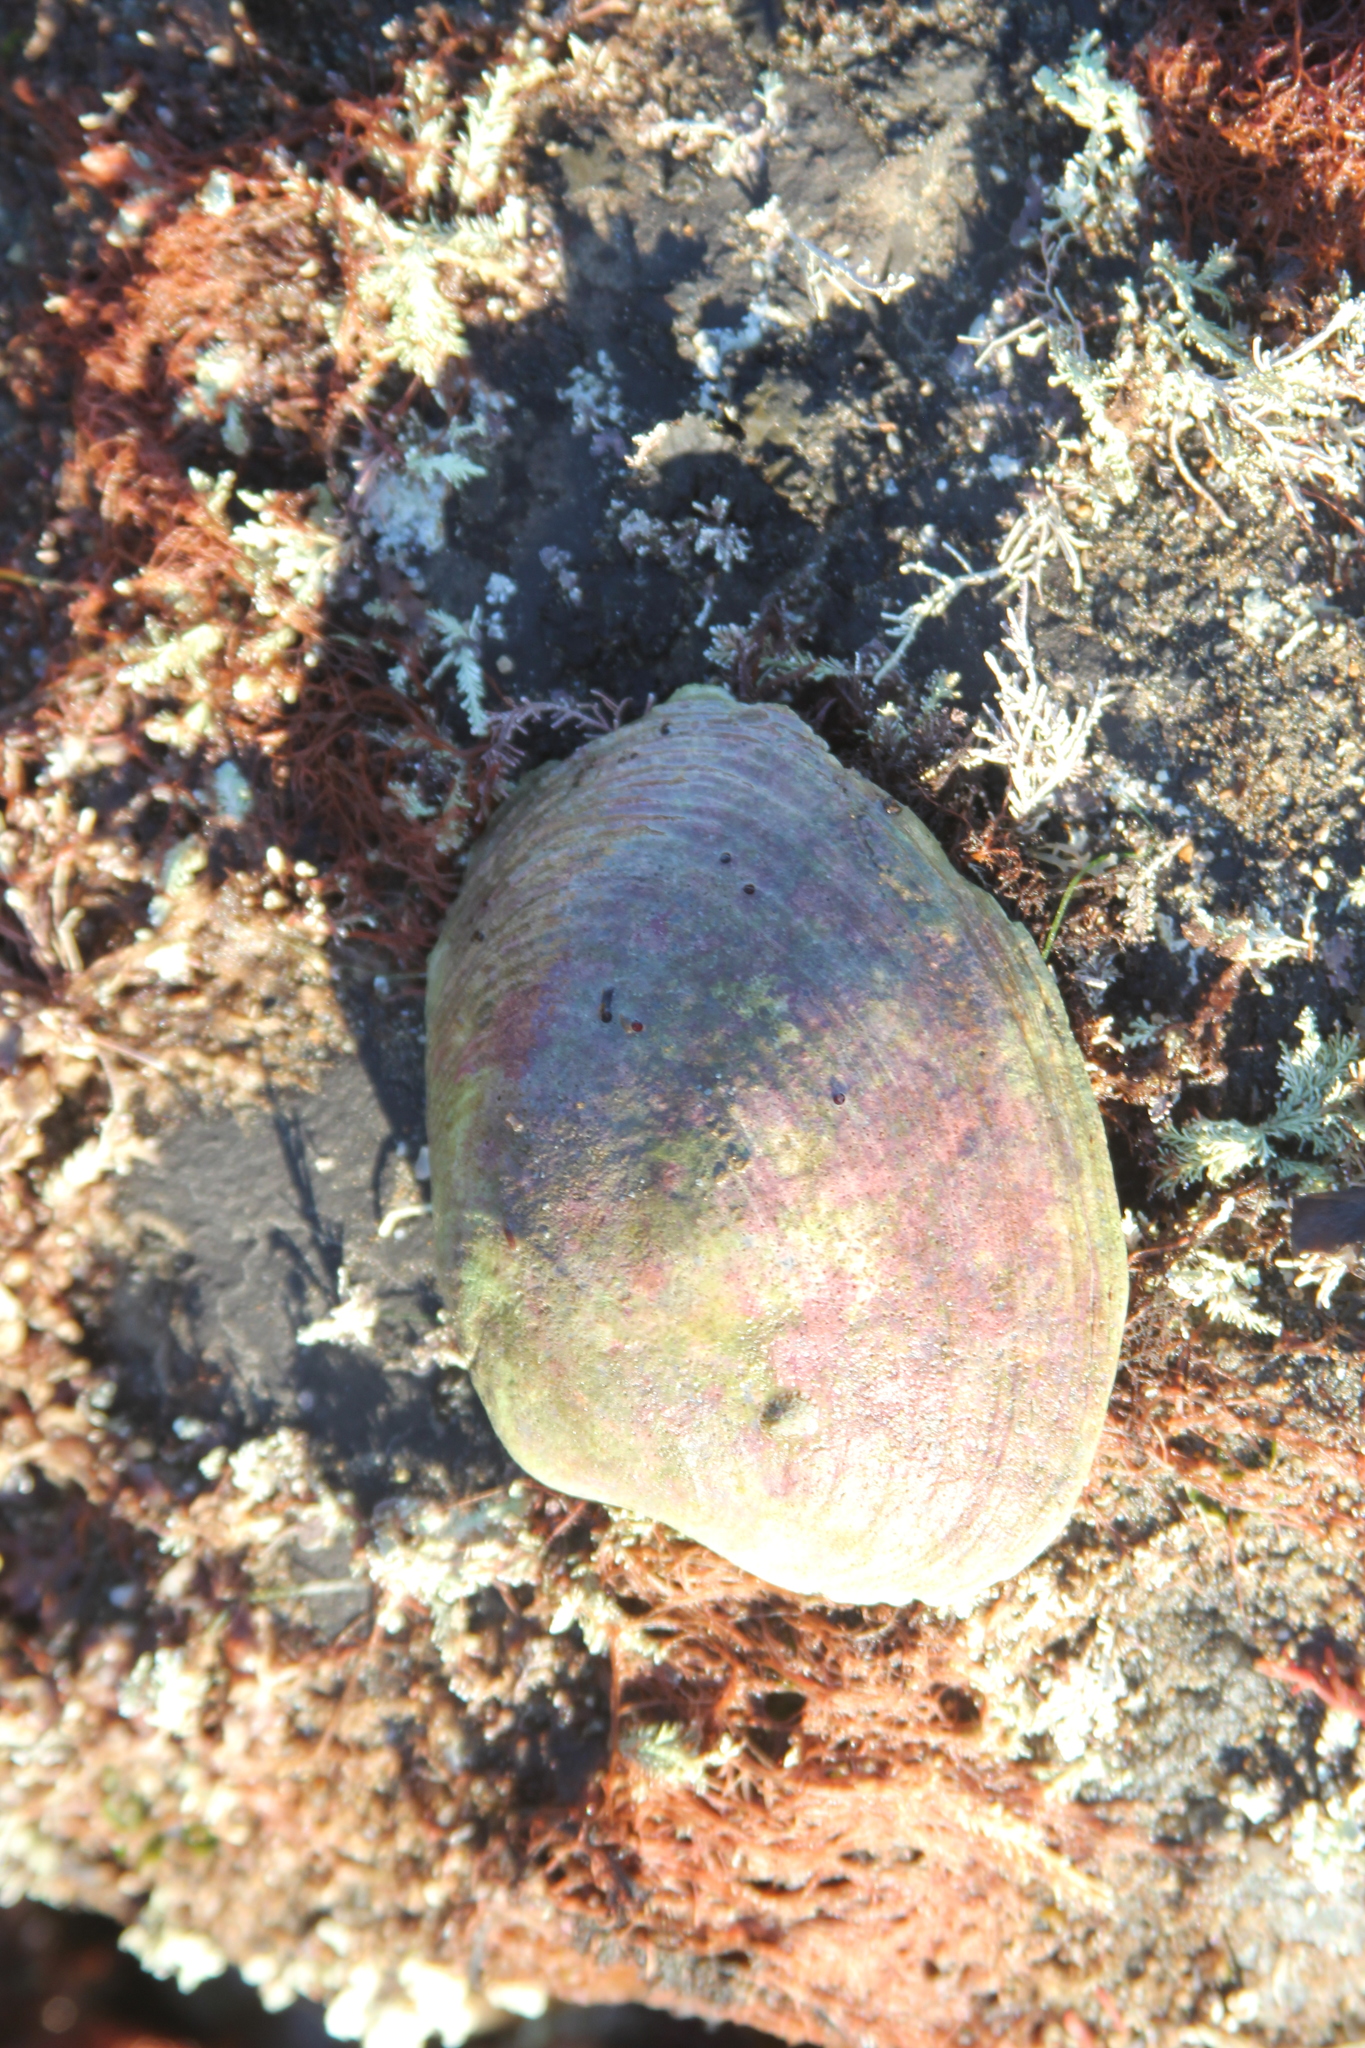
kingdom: Animalia
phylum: Mollusca
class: Bivalvia
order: Venerida
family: Veneridae
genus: Saxidomus
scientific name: Saxidomus nuttalli
